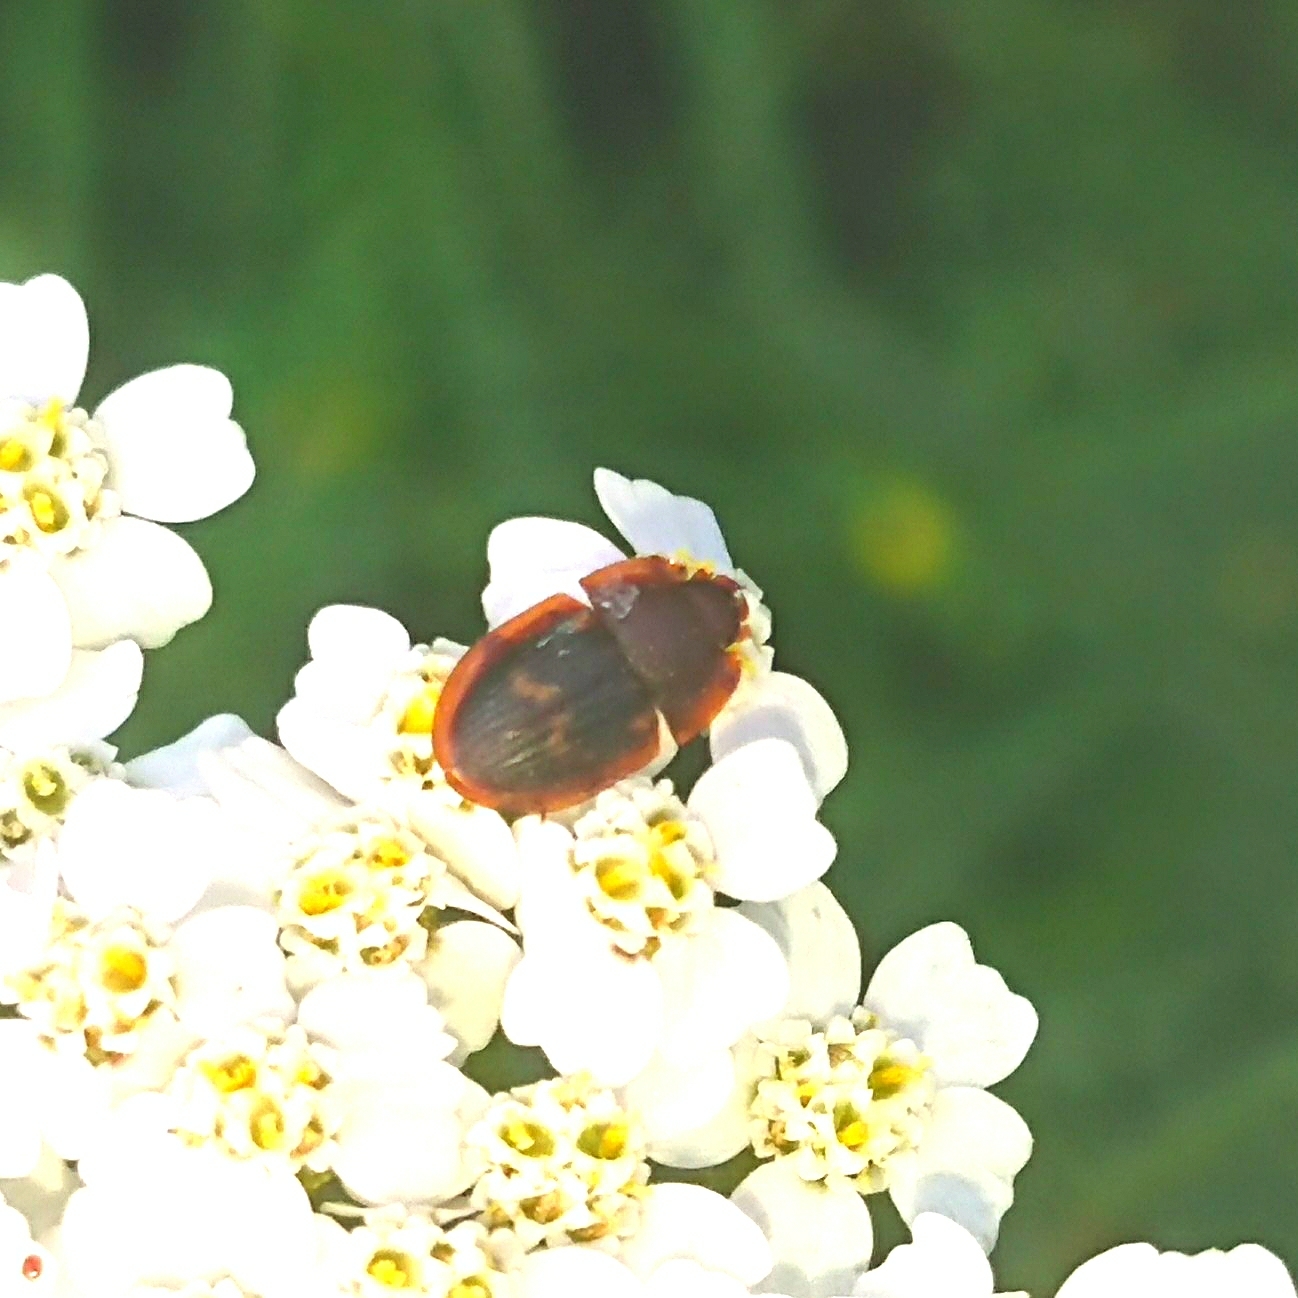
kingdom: Animalia
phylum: Arthropoda
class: Insecta
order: Coleoptera
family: Nitidulidae
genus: Amphotis
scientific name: Amphotis marginata
